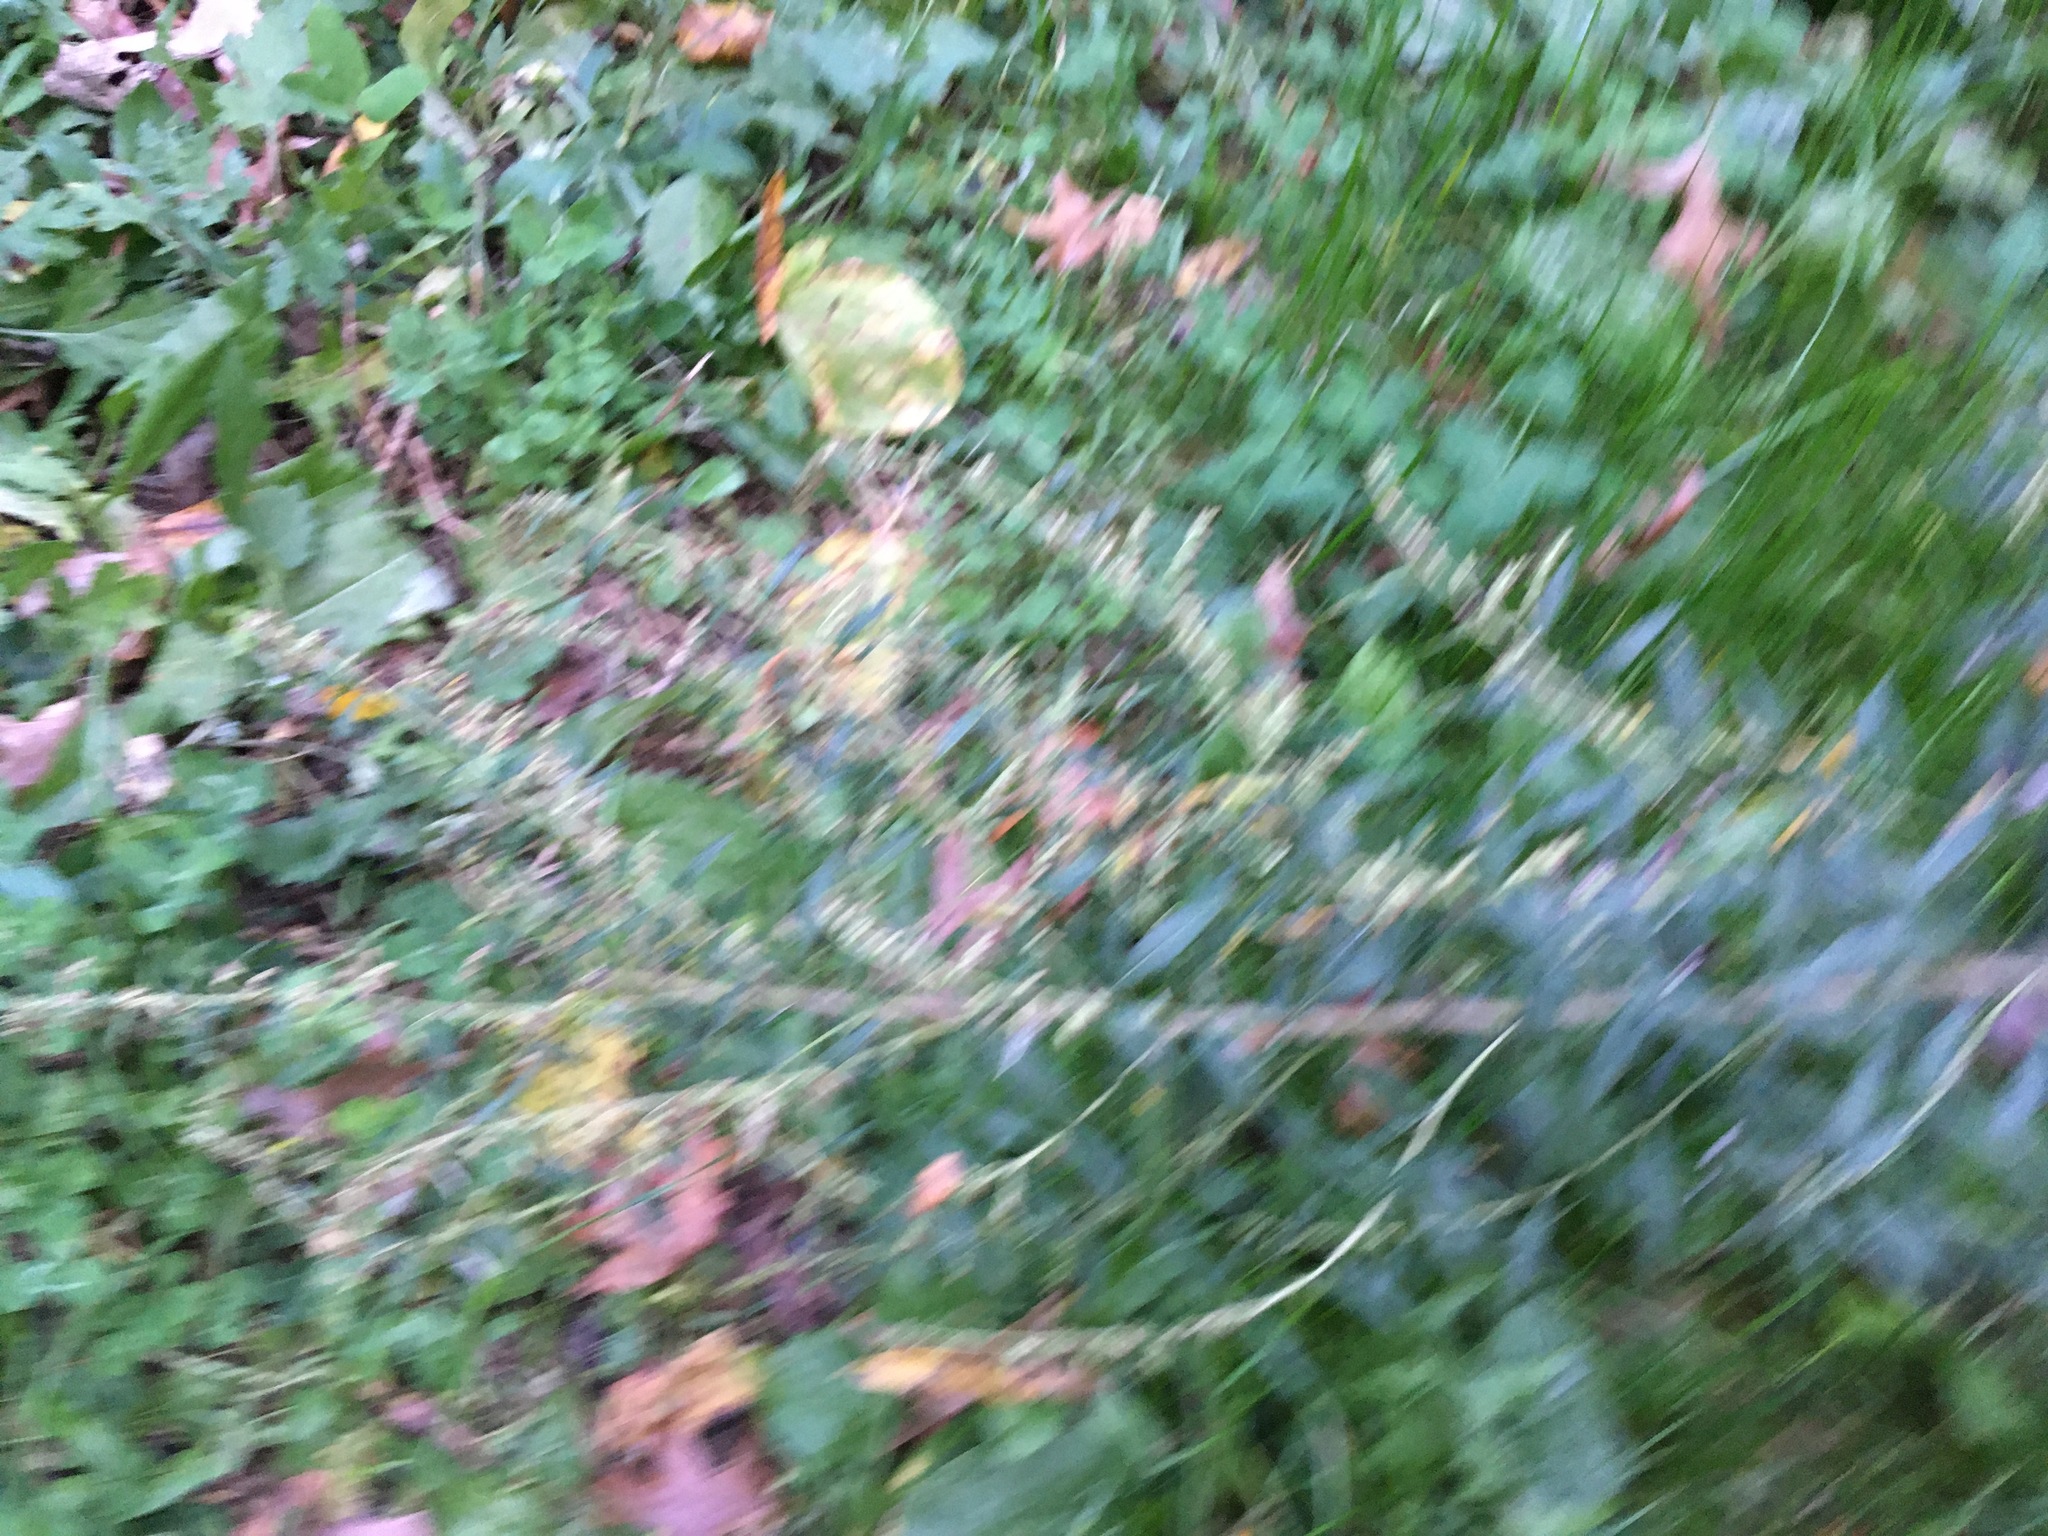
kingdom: Plantae
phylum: Tracheophyta
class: Magnoliopsida
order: Asterales
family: Asteraceae
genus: Artemisia
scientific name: Artemisia vulgaris
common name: Mugwort
